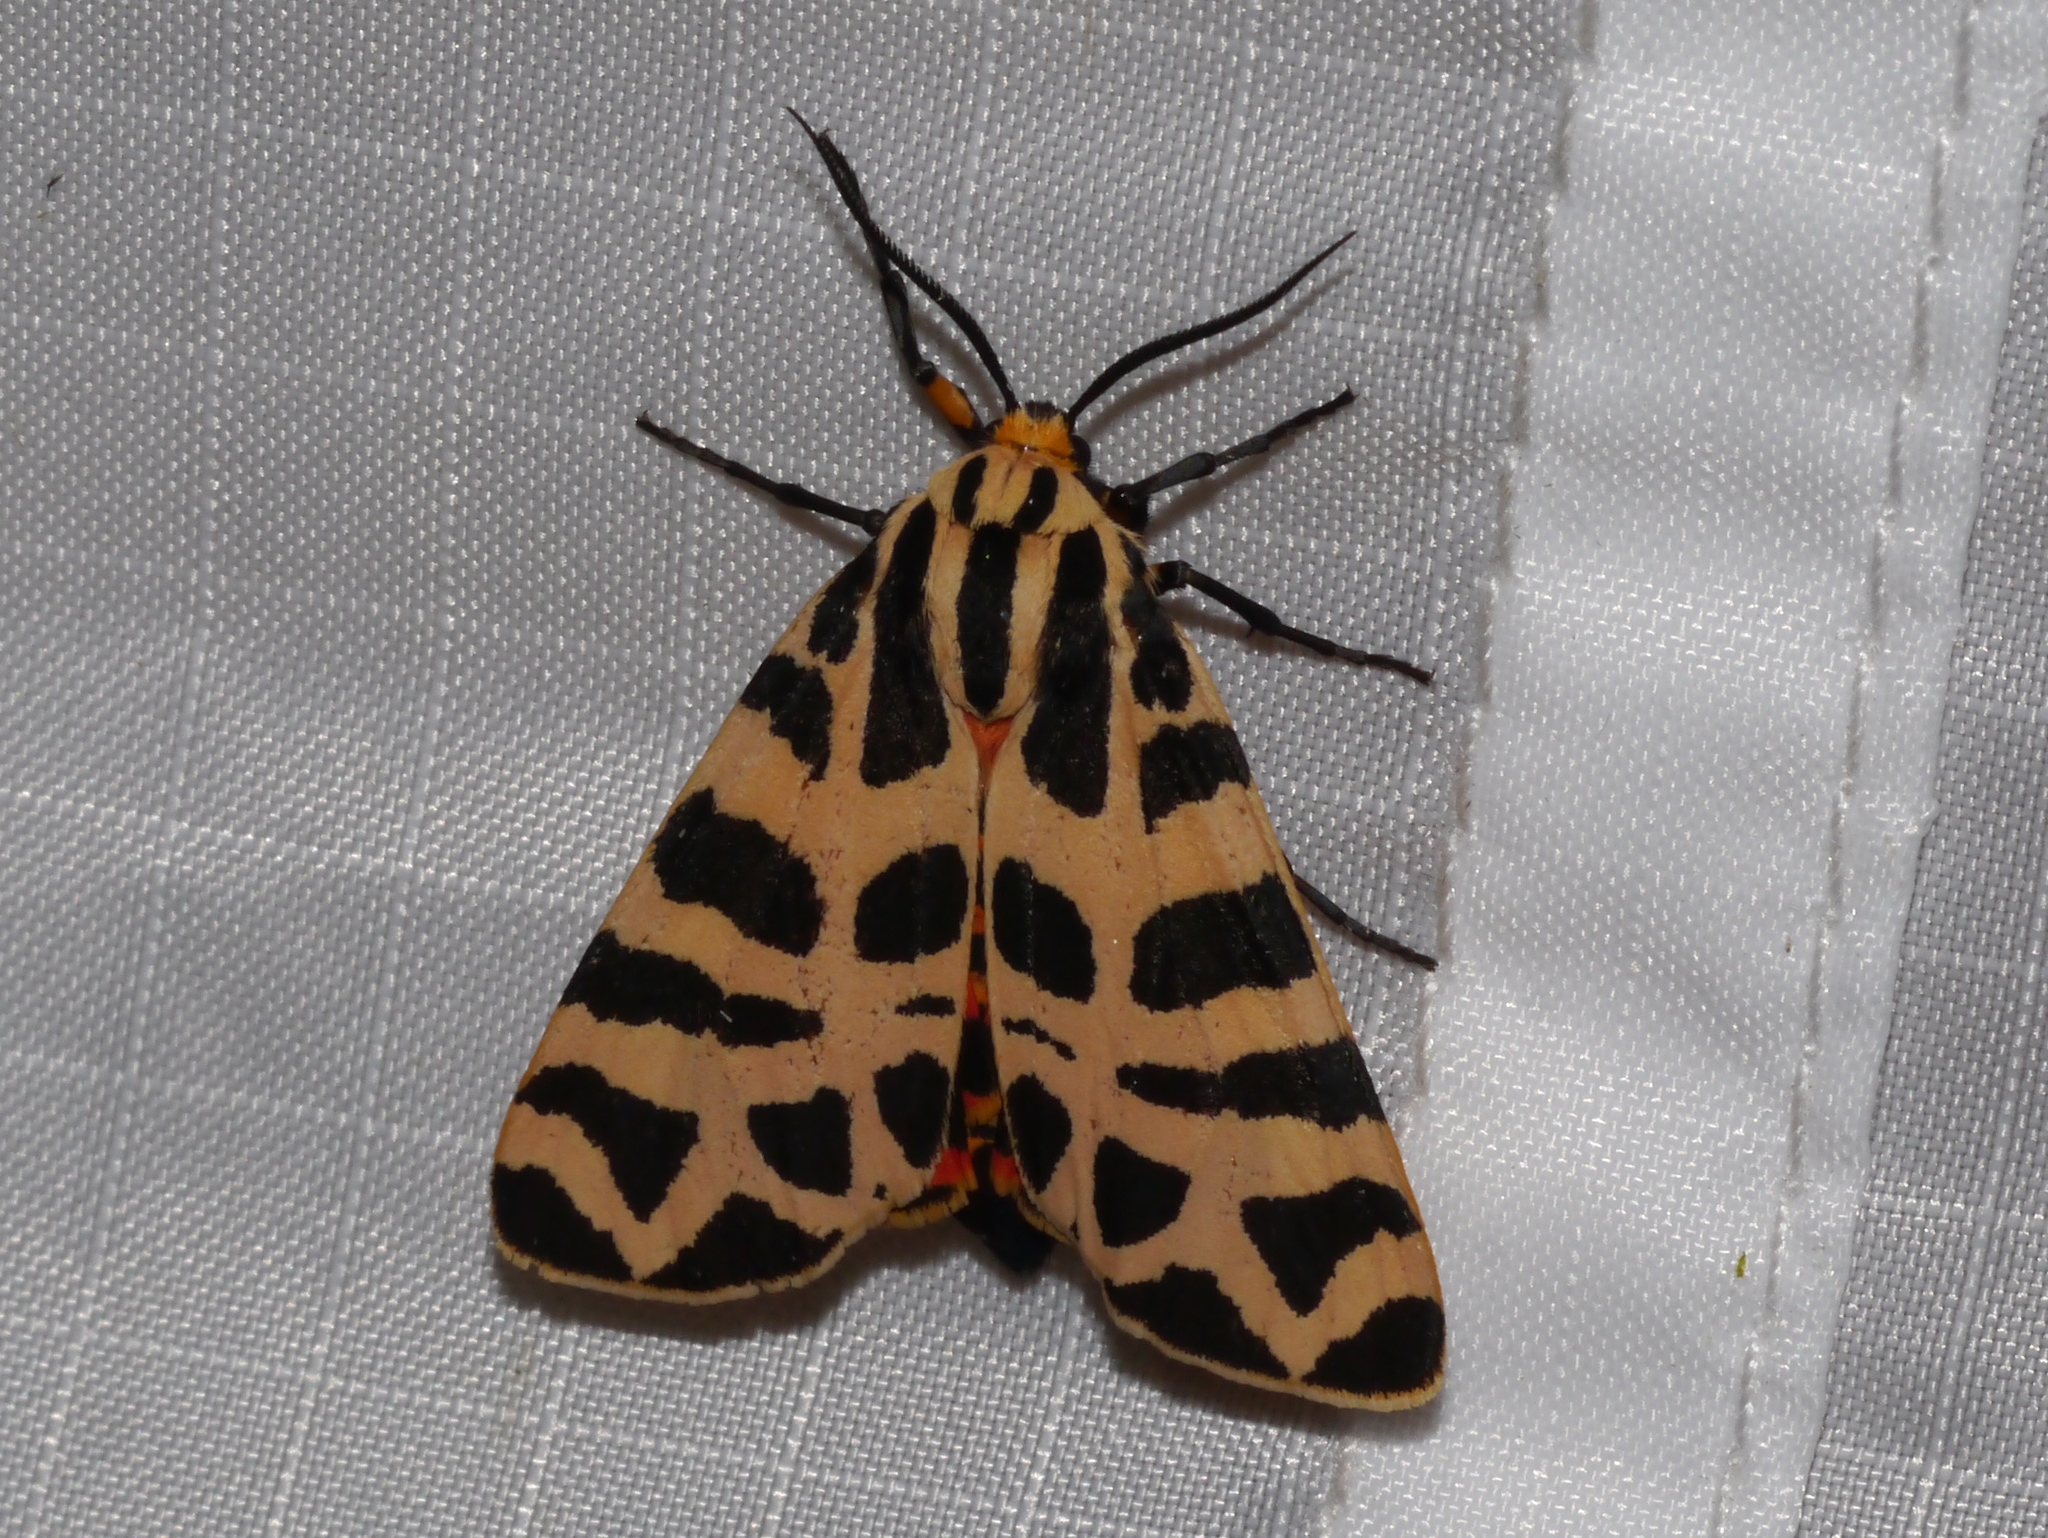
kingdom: Animalia
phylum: Arthropoda
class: Insecta
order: Lepidoptera
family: Erebidae
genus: Apantesis
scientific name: Apantesis incorrupta
